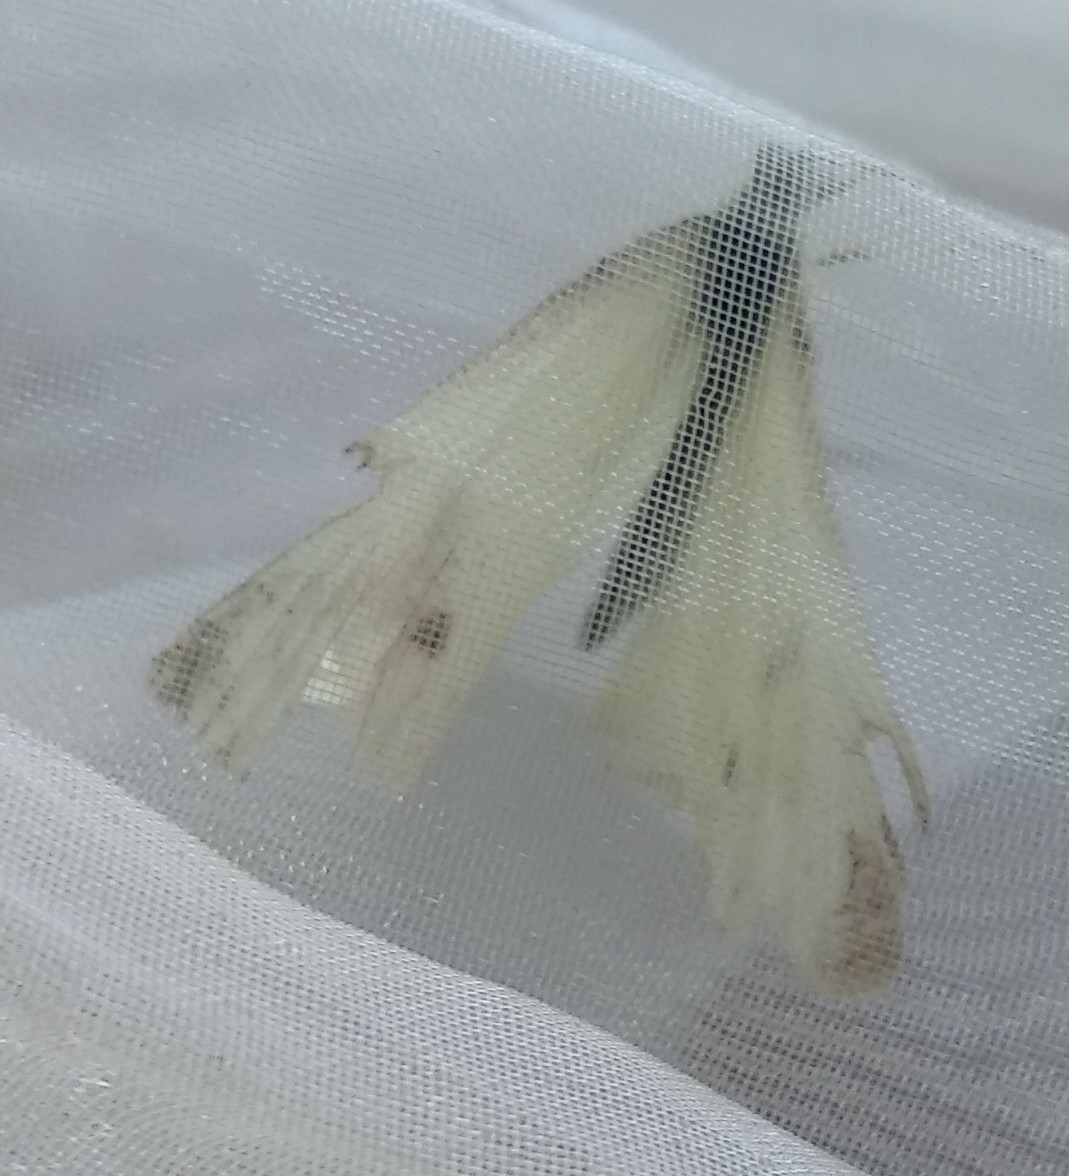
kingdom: Animalia
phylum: Arthropoda
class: Insecta
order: Lepidoptera
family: Pieridae
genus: Pieris
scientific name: Pieris rapae
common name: Small white
